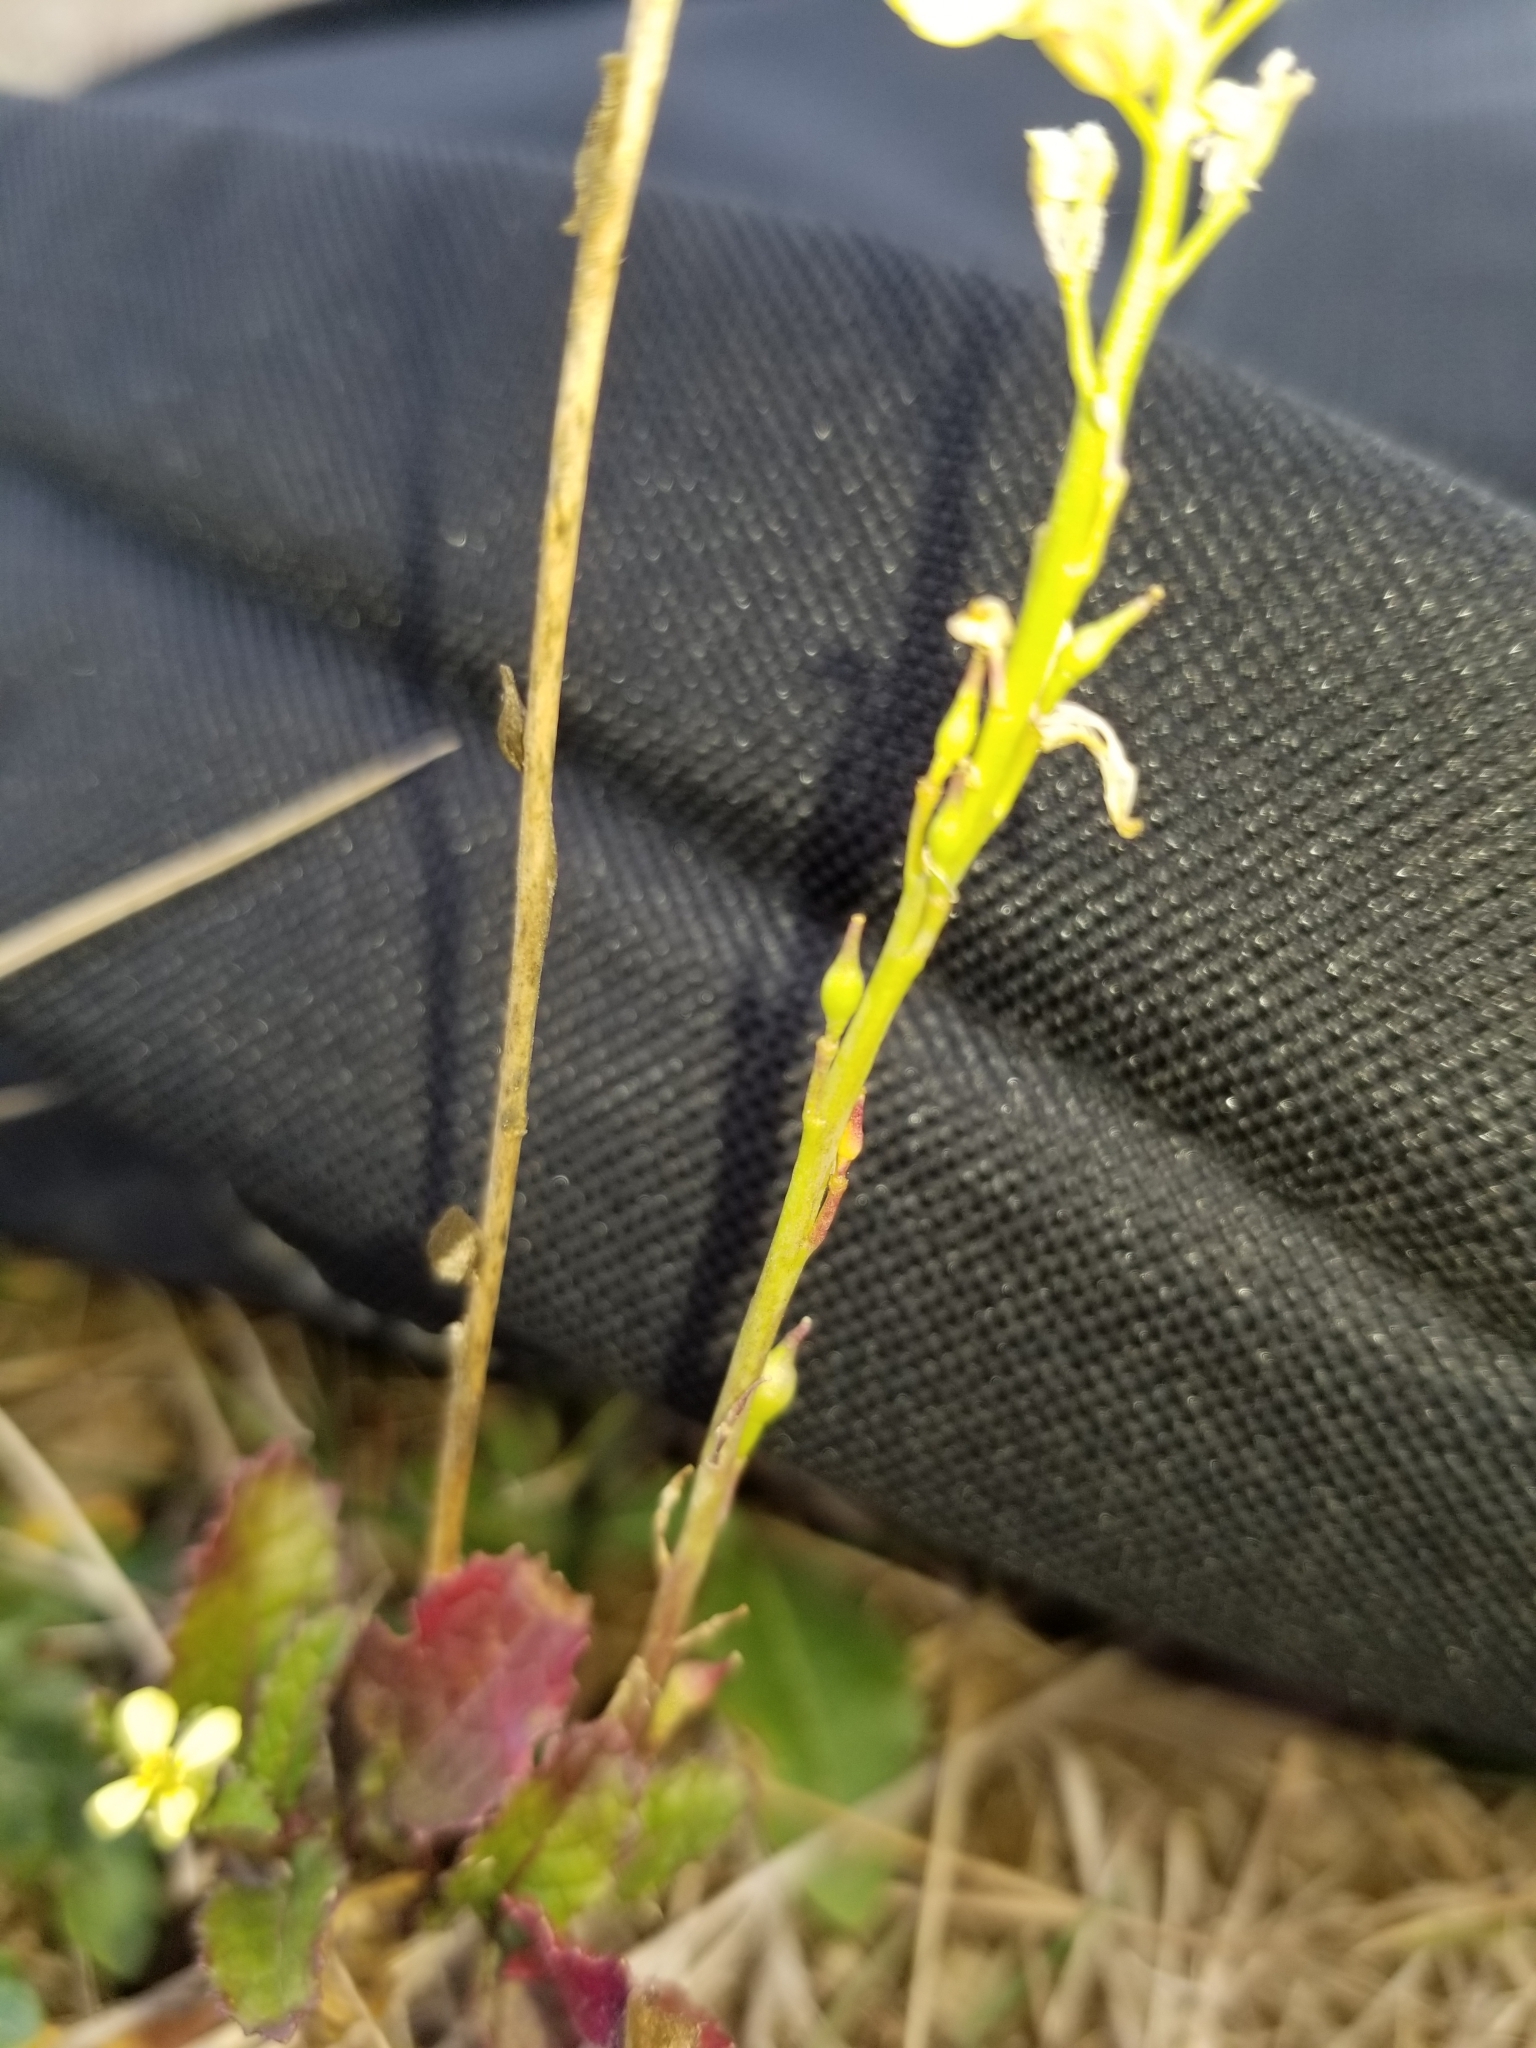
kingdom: Plantae
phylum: Tracheophyta
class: Magnoliopsida
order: Brassicales
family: Brassicaceae
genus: Rapistrum
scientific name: Rapistrum rugosum
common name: Annual bastardcabbage
